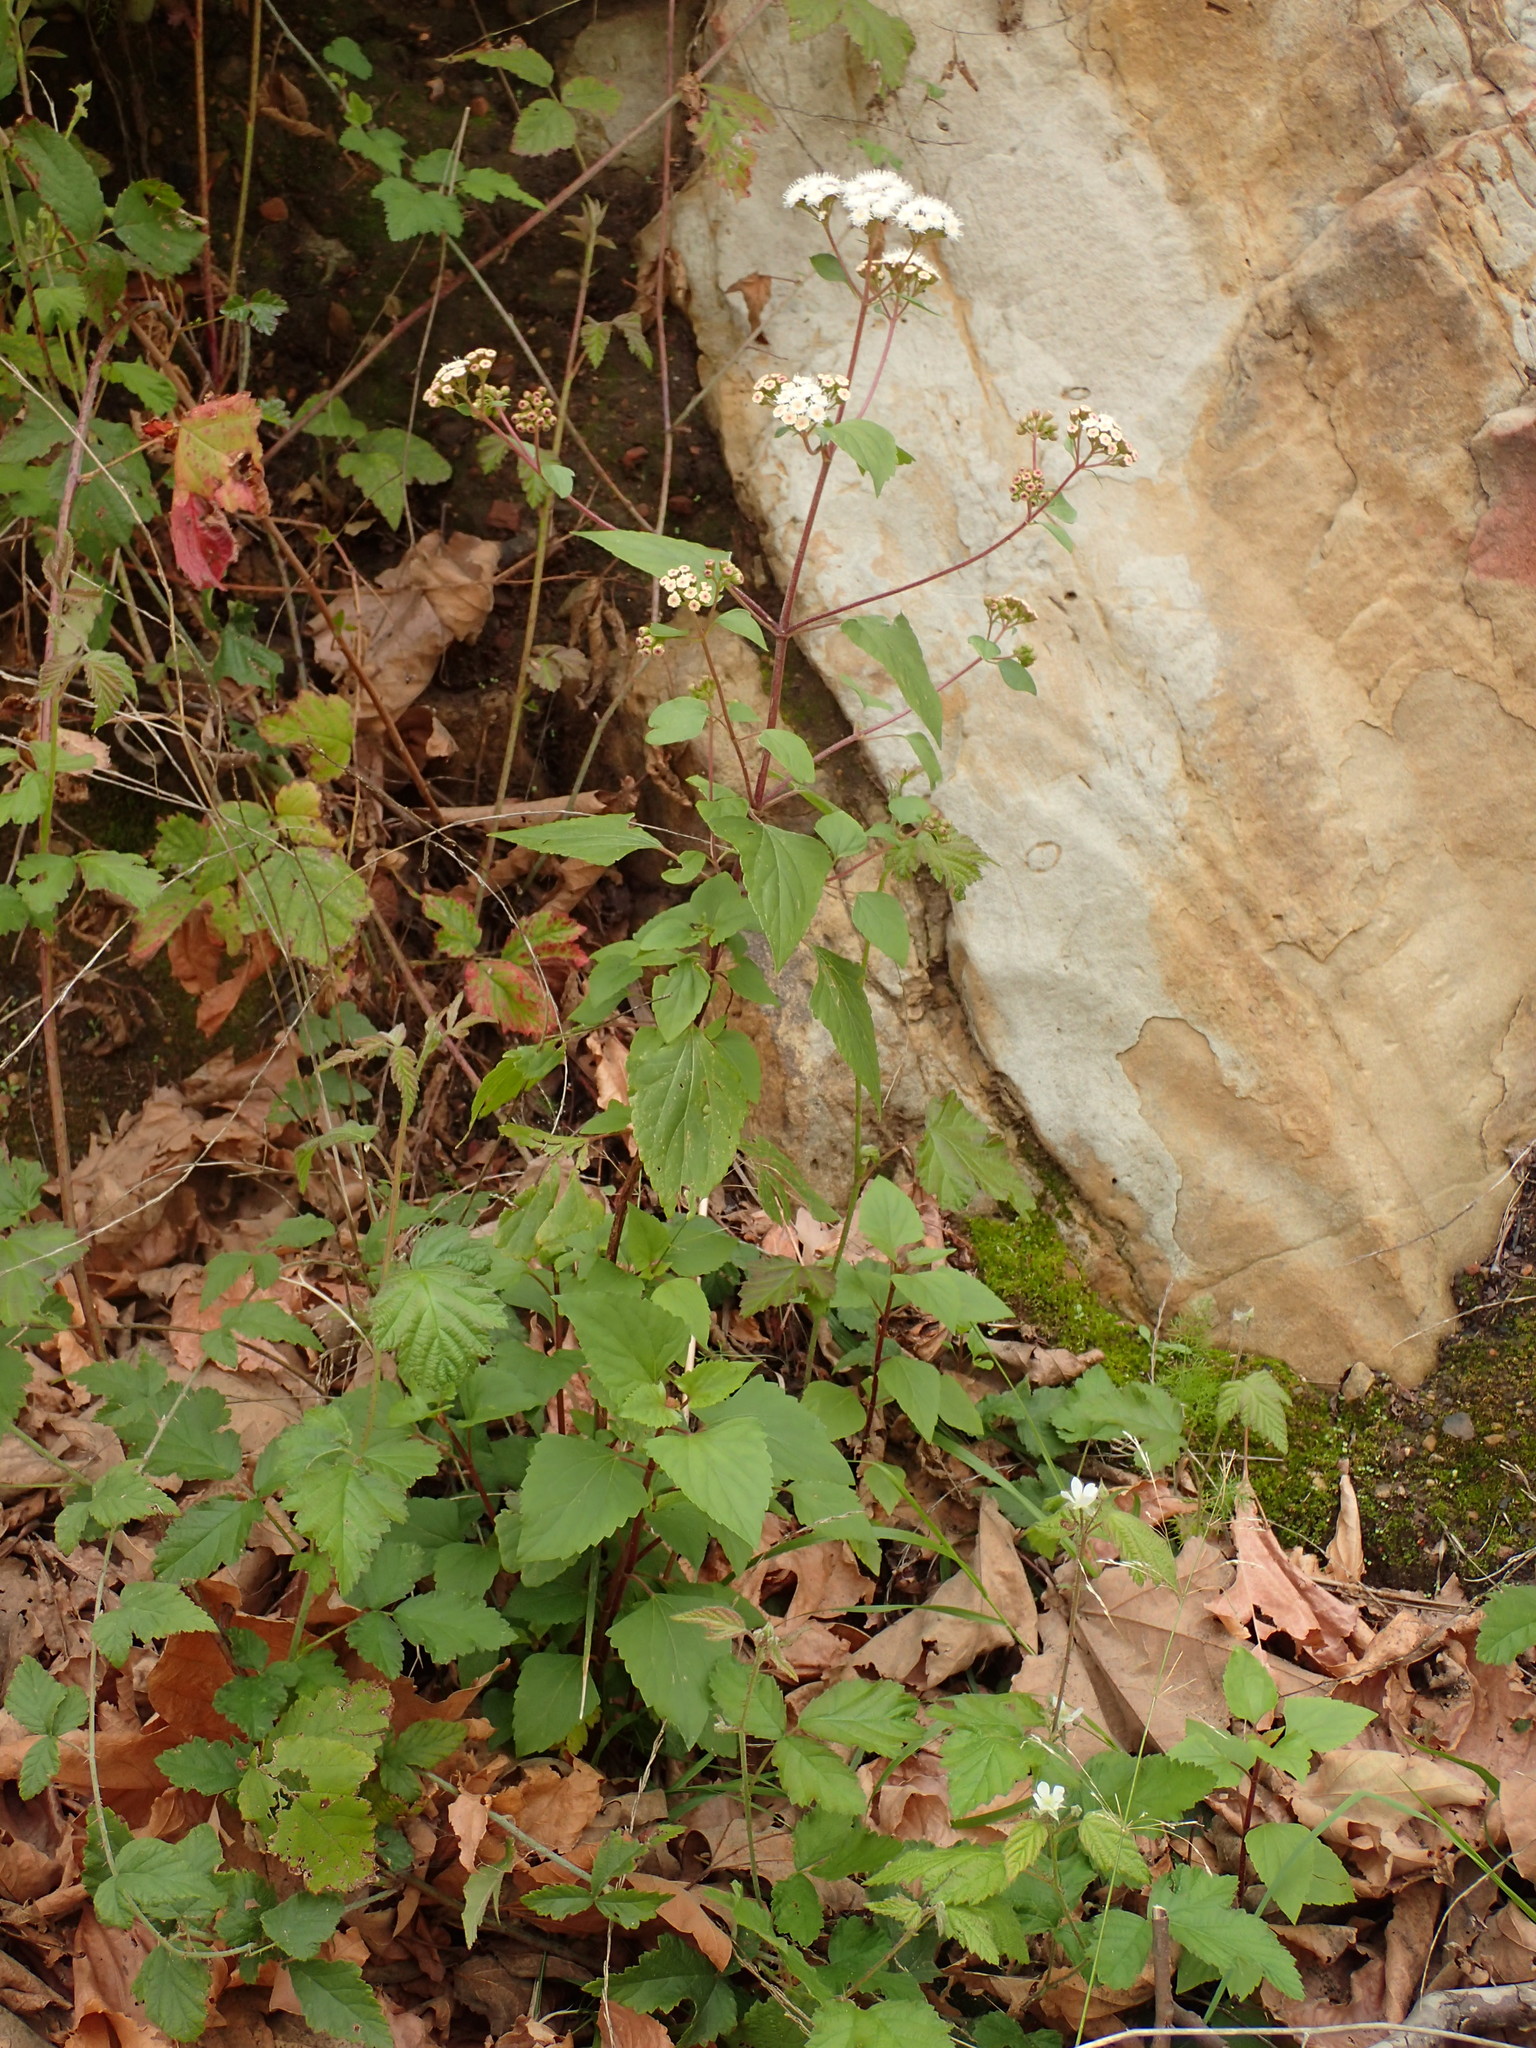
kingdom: Plantae
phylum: Tracheophyta
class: Magnoliopsida
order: Asterales
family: Asteraceae
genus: Ageratina
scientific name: Ageratina adenophora
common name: Sticky snakeroot
